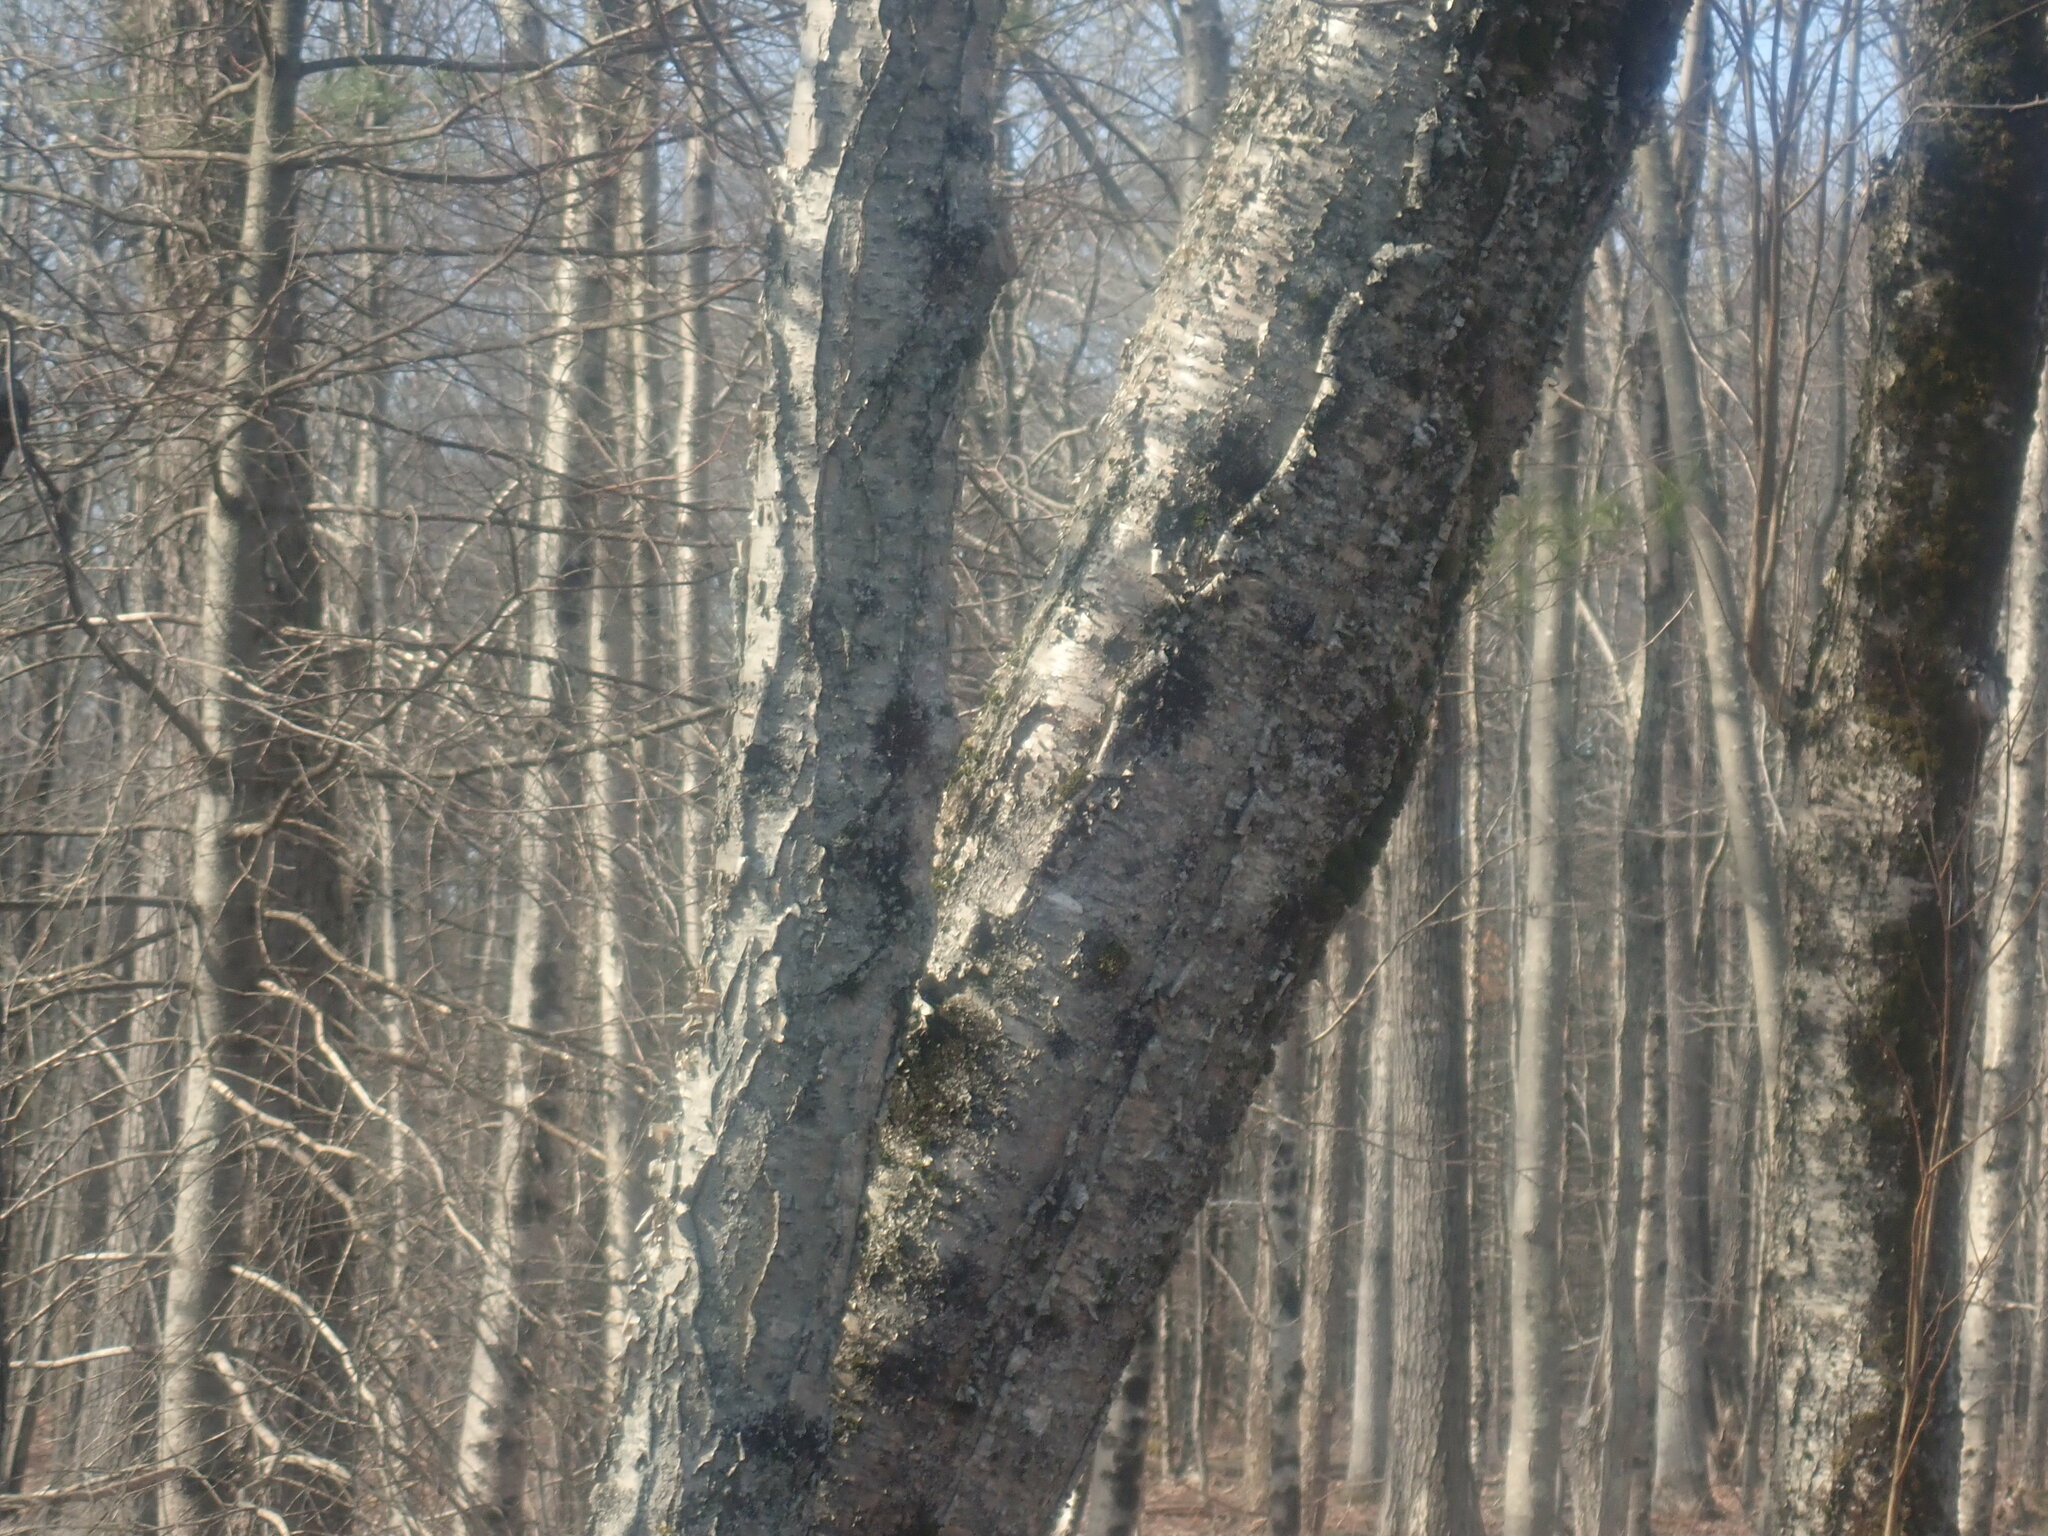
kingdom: Plantae
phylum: Tracheophyta
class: Magnoliopsida
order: Fagales
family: Betulaceae
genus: Betula
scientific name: Betula alleghaniensis
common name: Yellow birch
